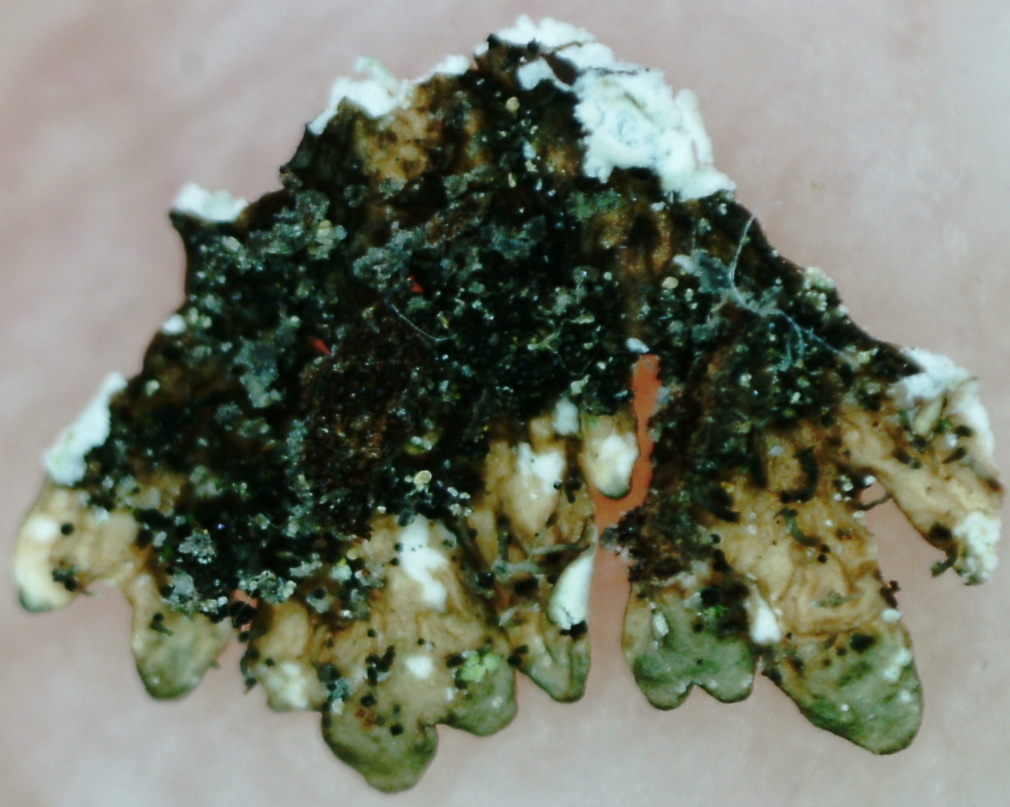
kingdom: Fungi
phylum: Ascomycota
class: Lecanoromycetes
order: Lecanorales
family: Parmeliaceae
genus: Parmeliopsis
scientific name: Parmeliopsis hyperopta
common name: Grey starburst lichen
